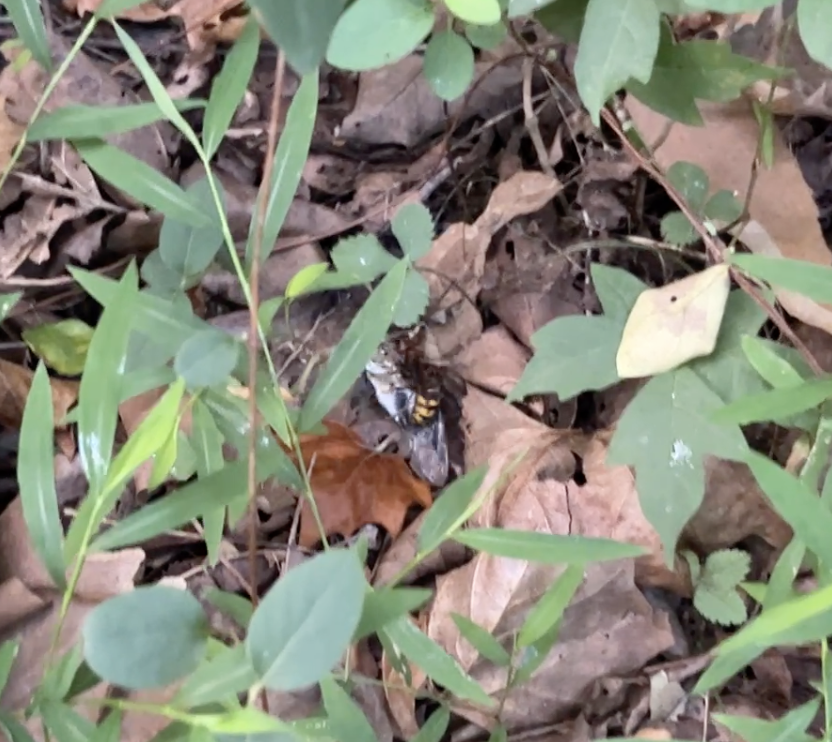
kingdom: Animalia
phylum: Arthropoda
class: Insecta
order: Hymenoptera
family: Vespidae
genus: Vespa
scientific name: Vespa crabro
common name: Hornet
